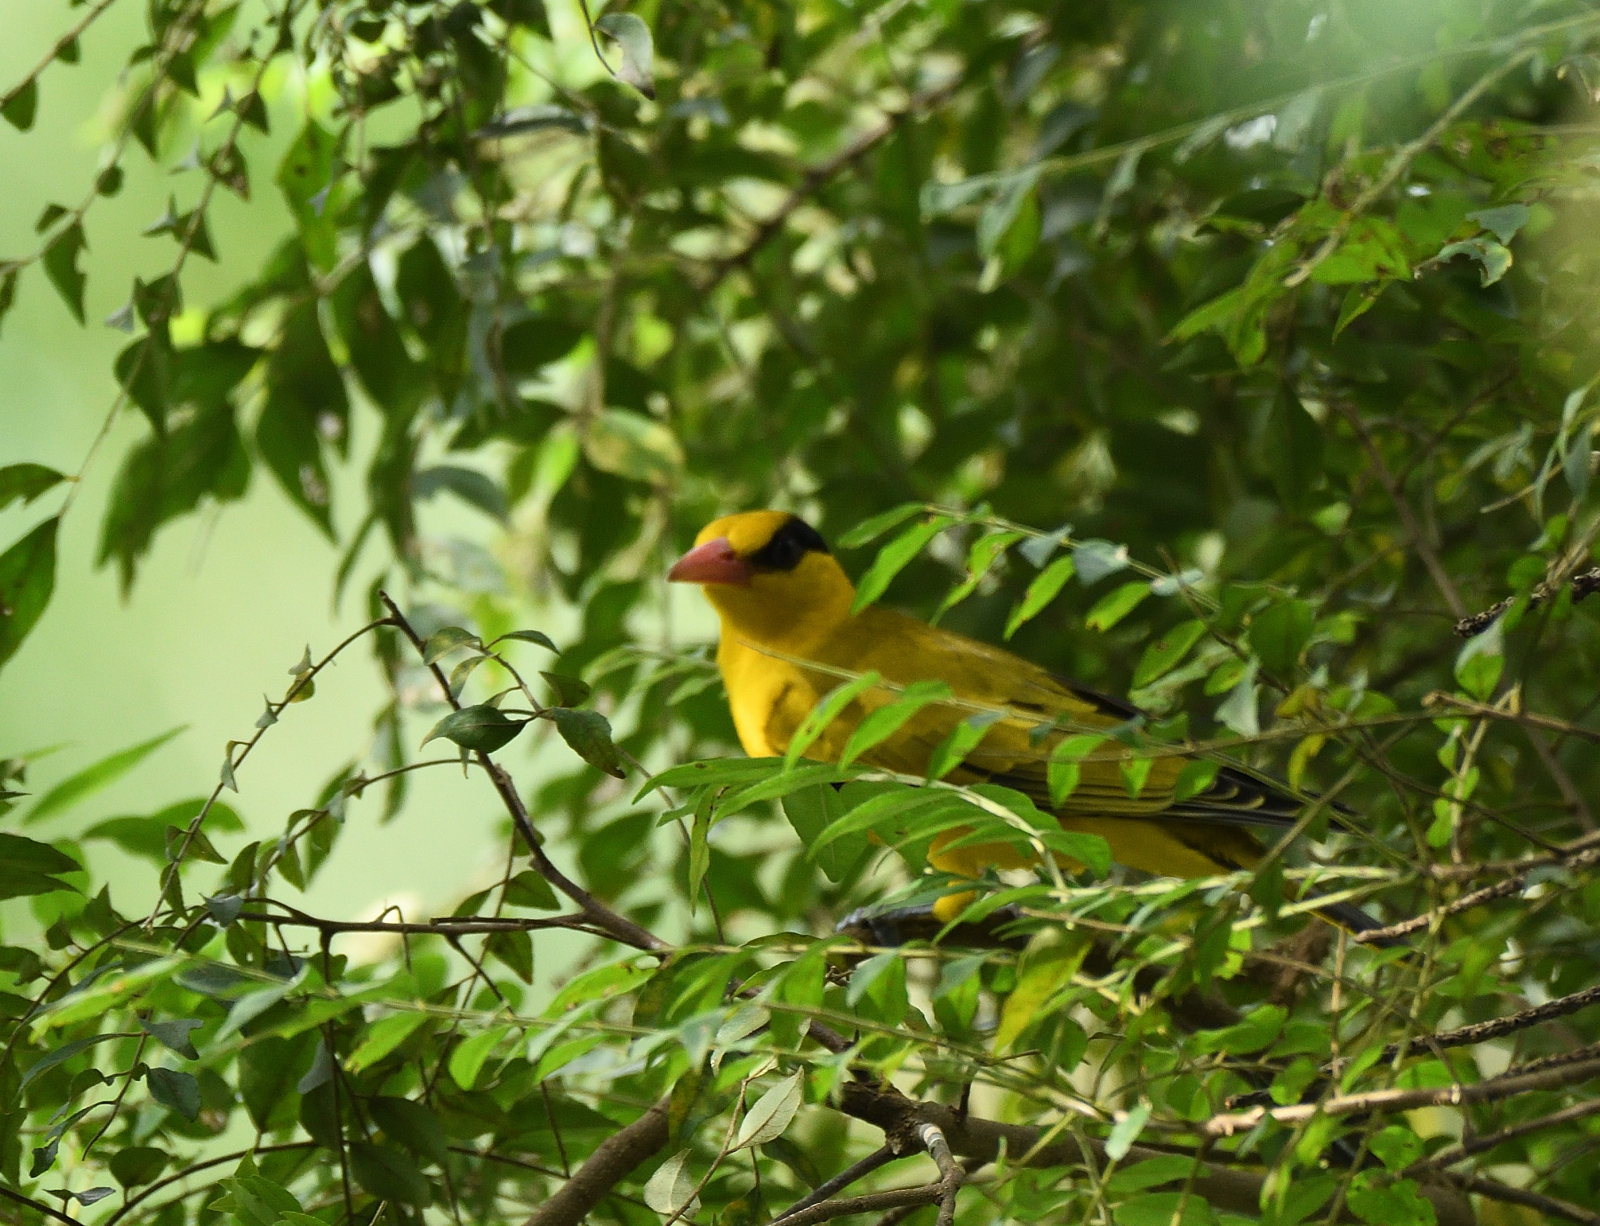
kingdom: Animalia
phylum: Chordata
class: Aves
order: Passeriformes
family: Oriolidae
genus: Oriolus
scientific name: Oriolus chinensis
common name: Black-naped oriole
